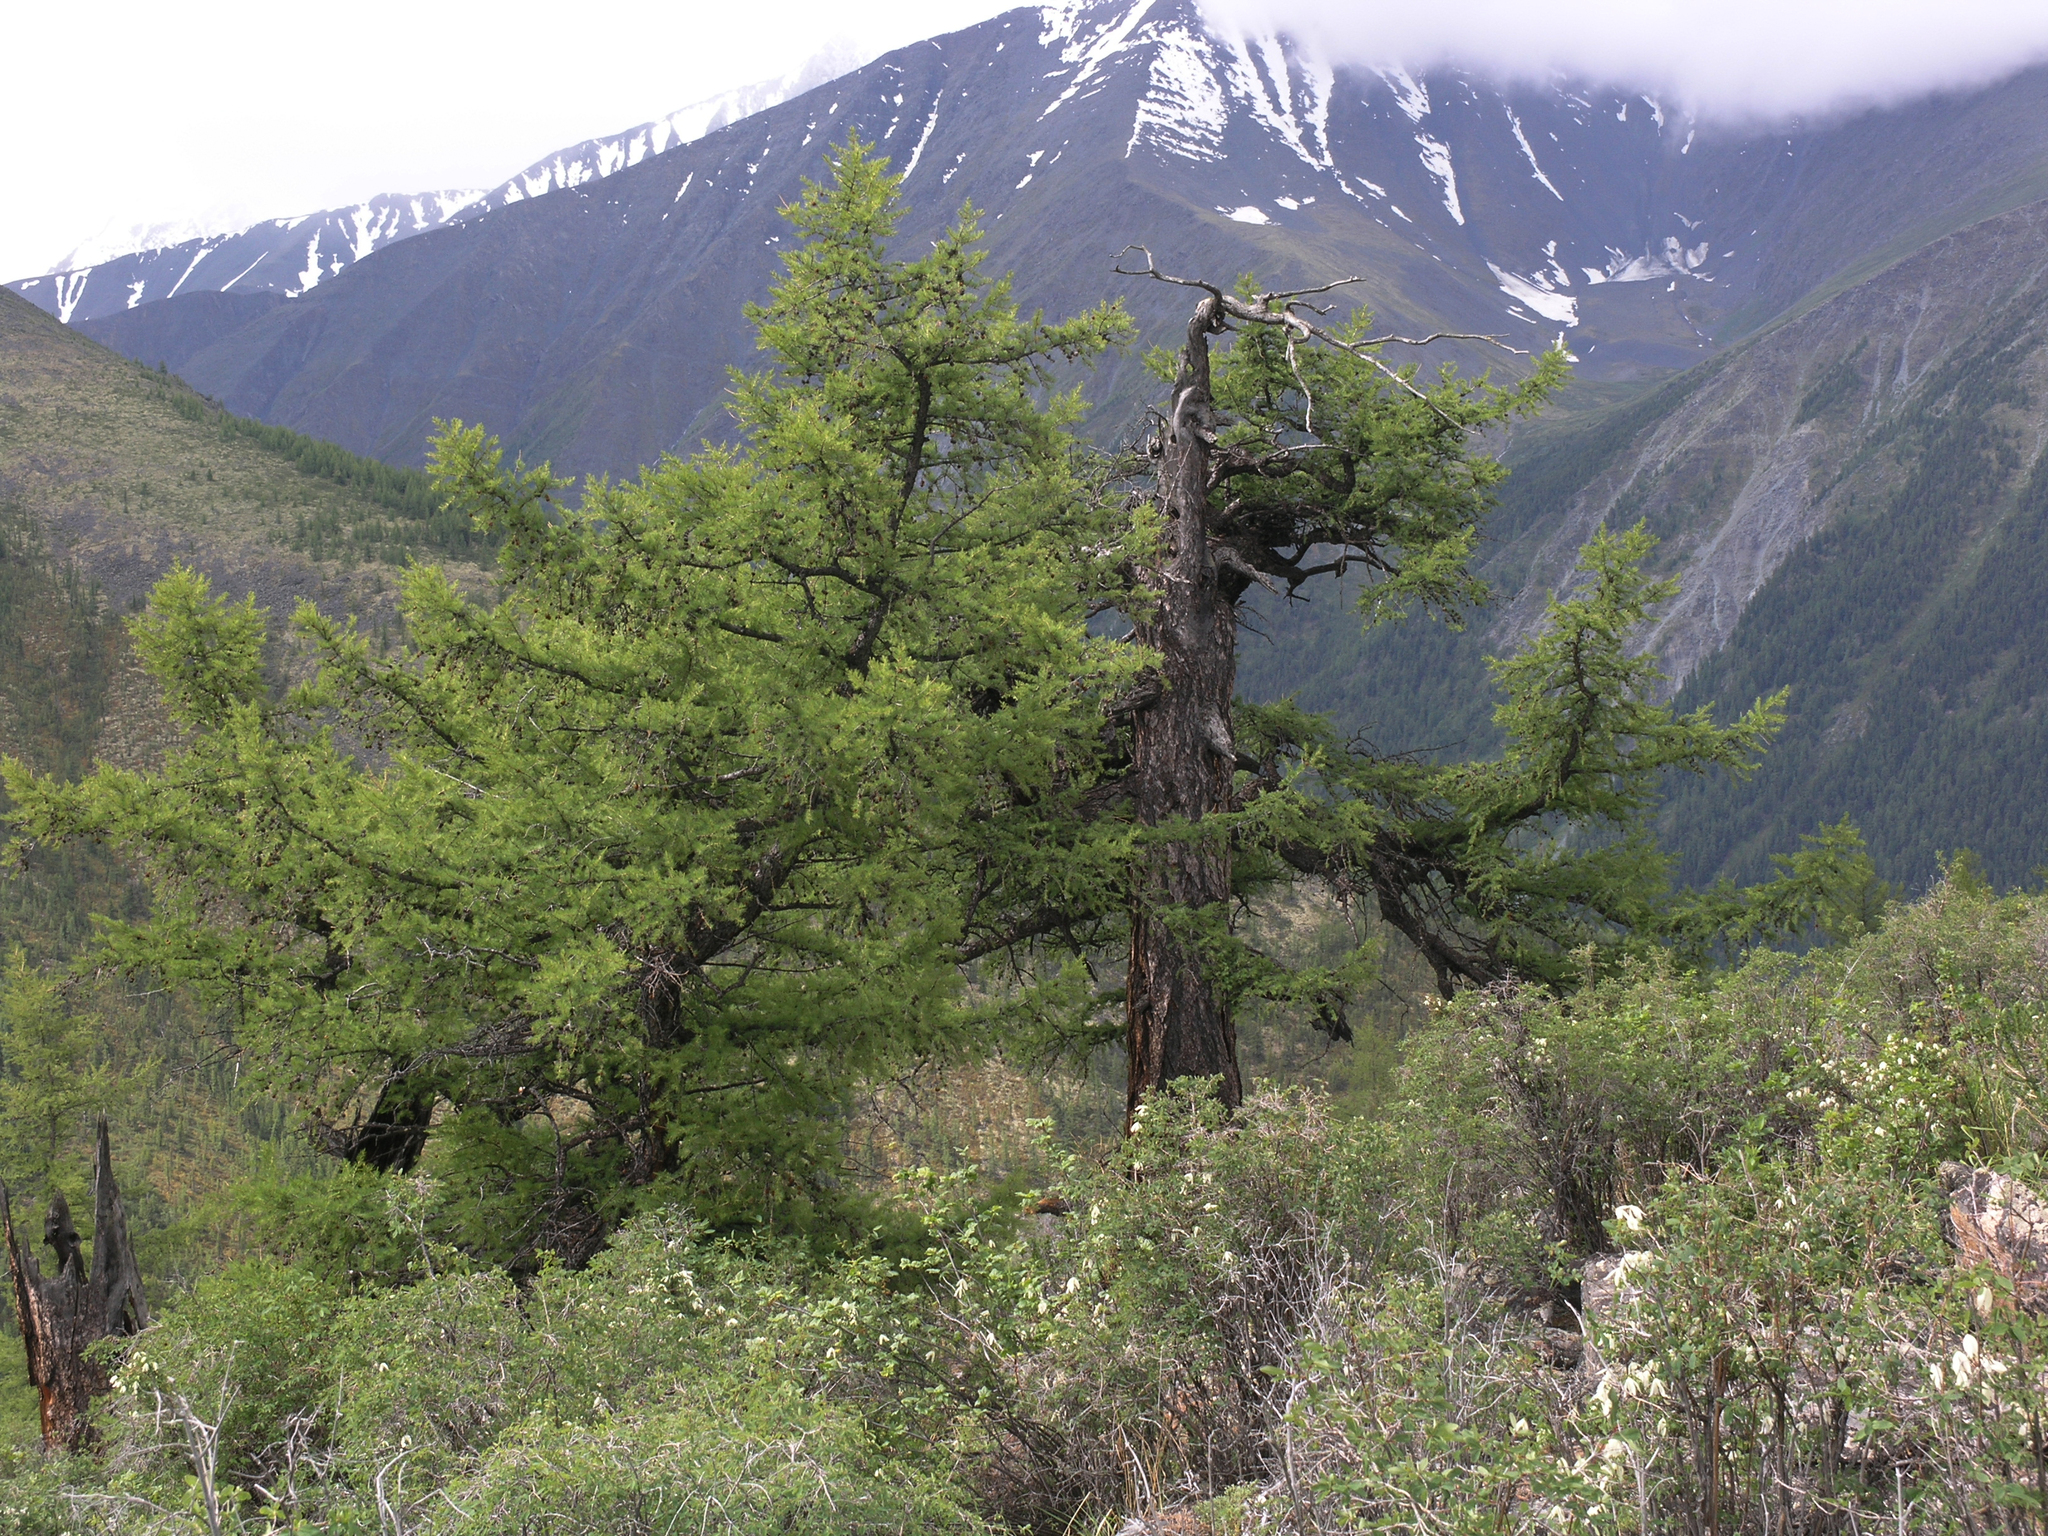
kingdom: Plantae
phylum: Tracheophyta
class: Pinopsida
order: Pinales
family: Pinaceae
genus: Larix
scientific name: Larix sibirica
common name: Siberian larch
